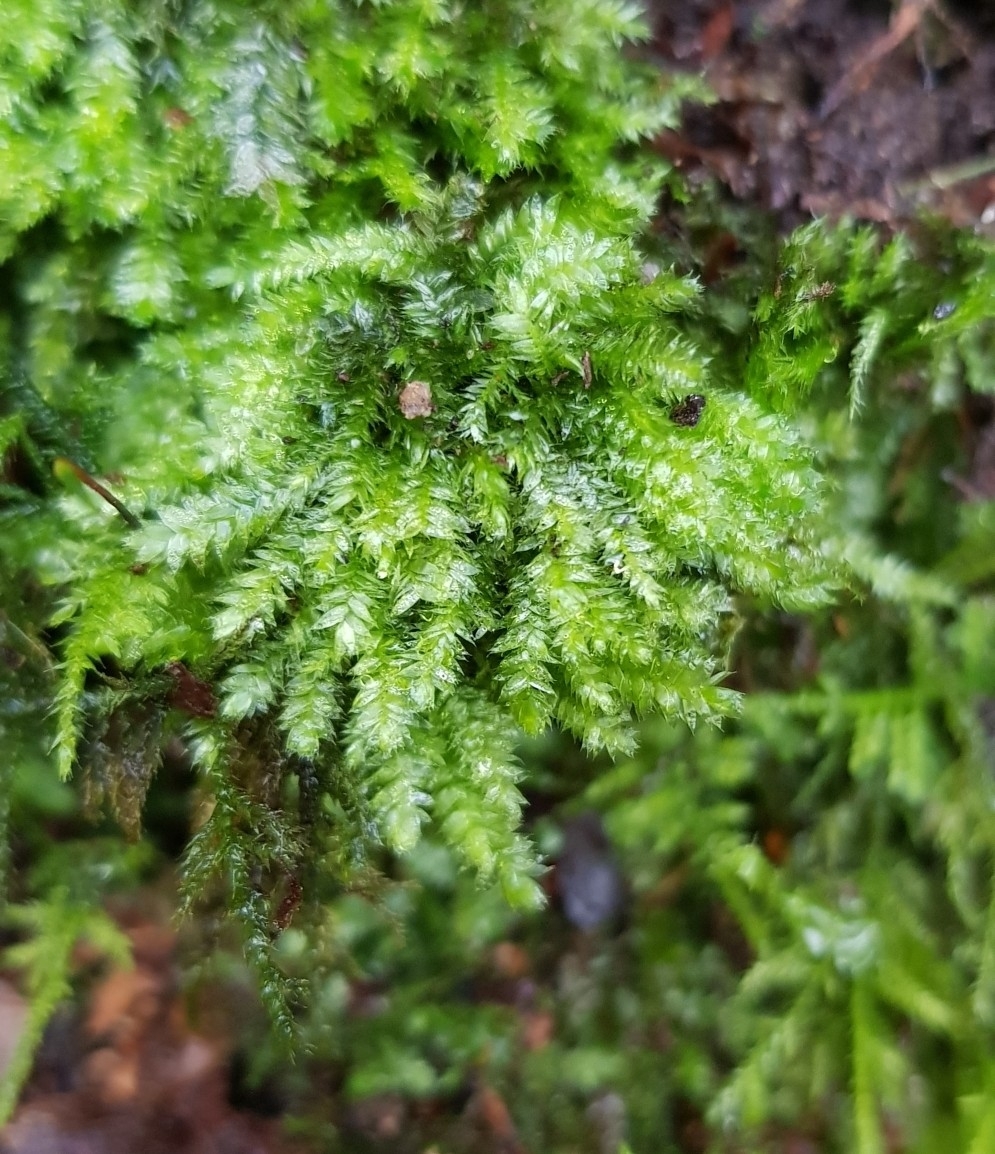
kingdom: Plantae
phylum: Bryophyta
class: Bryopsida
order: Hypnales
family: Plagiotheciaceae
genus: Pseudotaxiphyllum
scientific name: Pseudotaxiphyllum elegans
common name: Elegant silk moss
